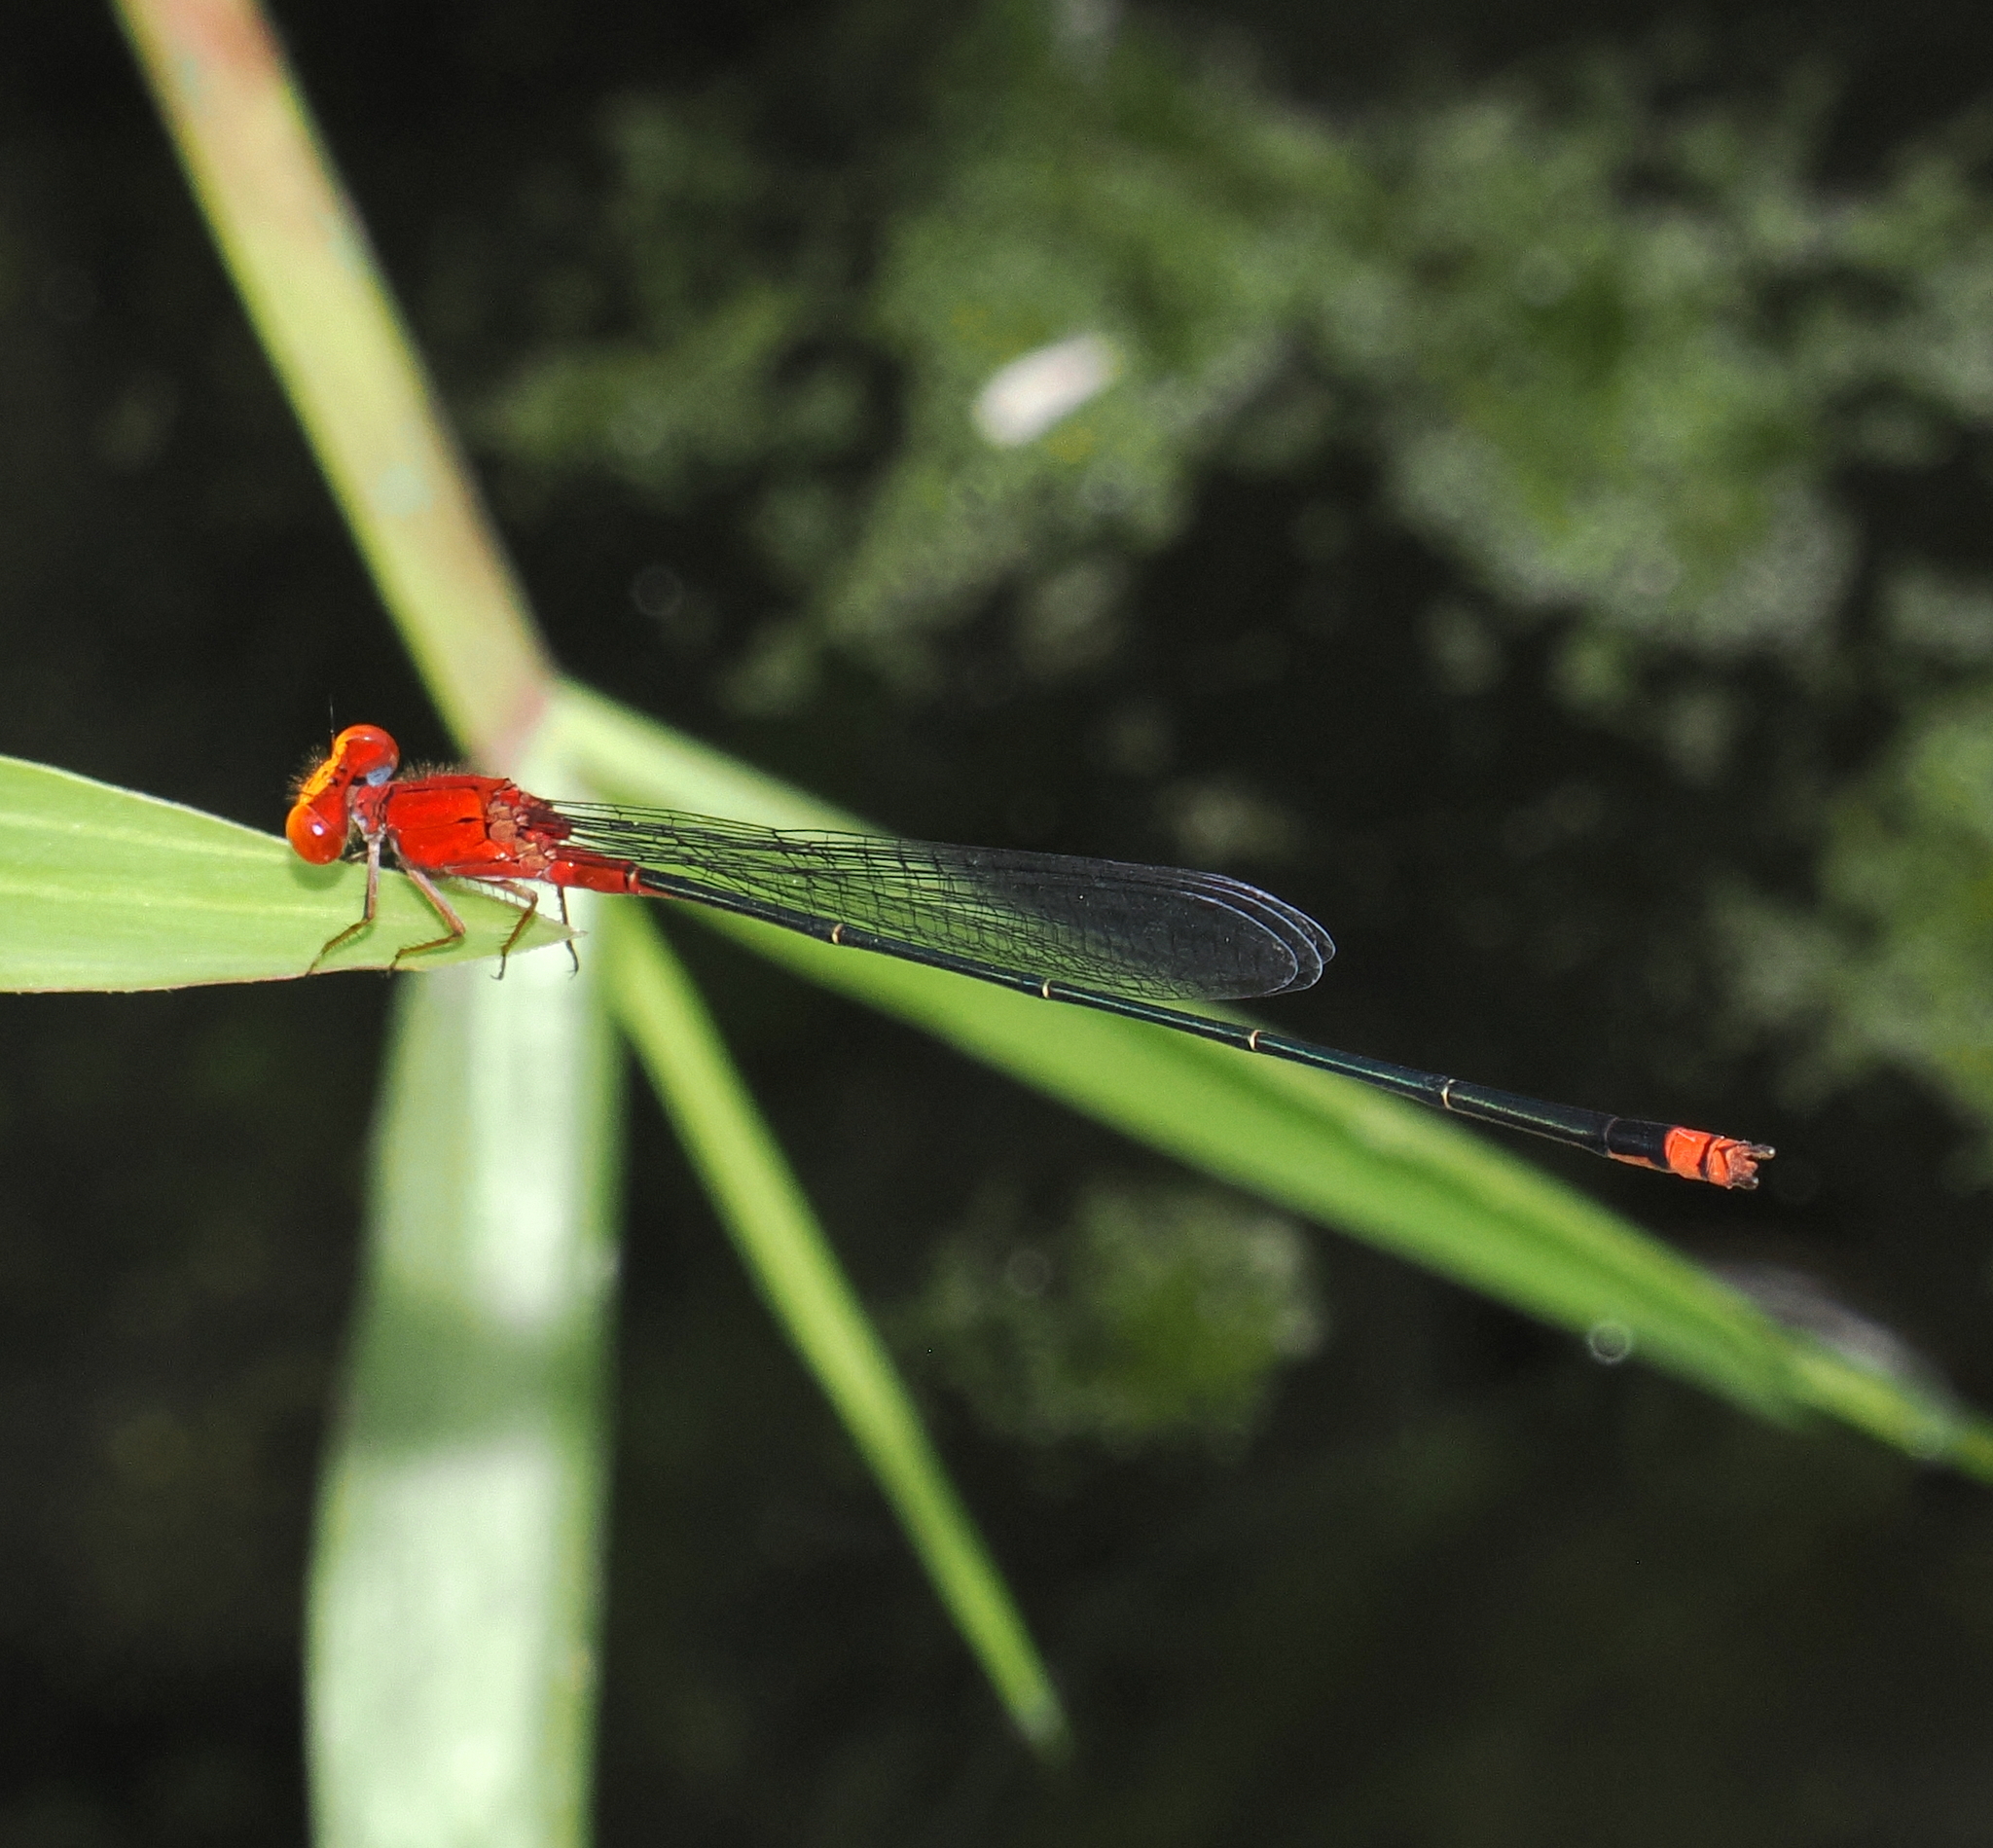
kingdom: Animalia
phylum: Arthropoda
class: Insecta
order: Odonata
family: Coenagrionidae
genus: Pseudagrion
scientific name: Pseudagrion pilidorsum
